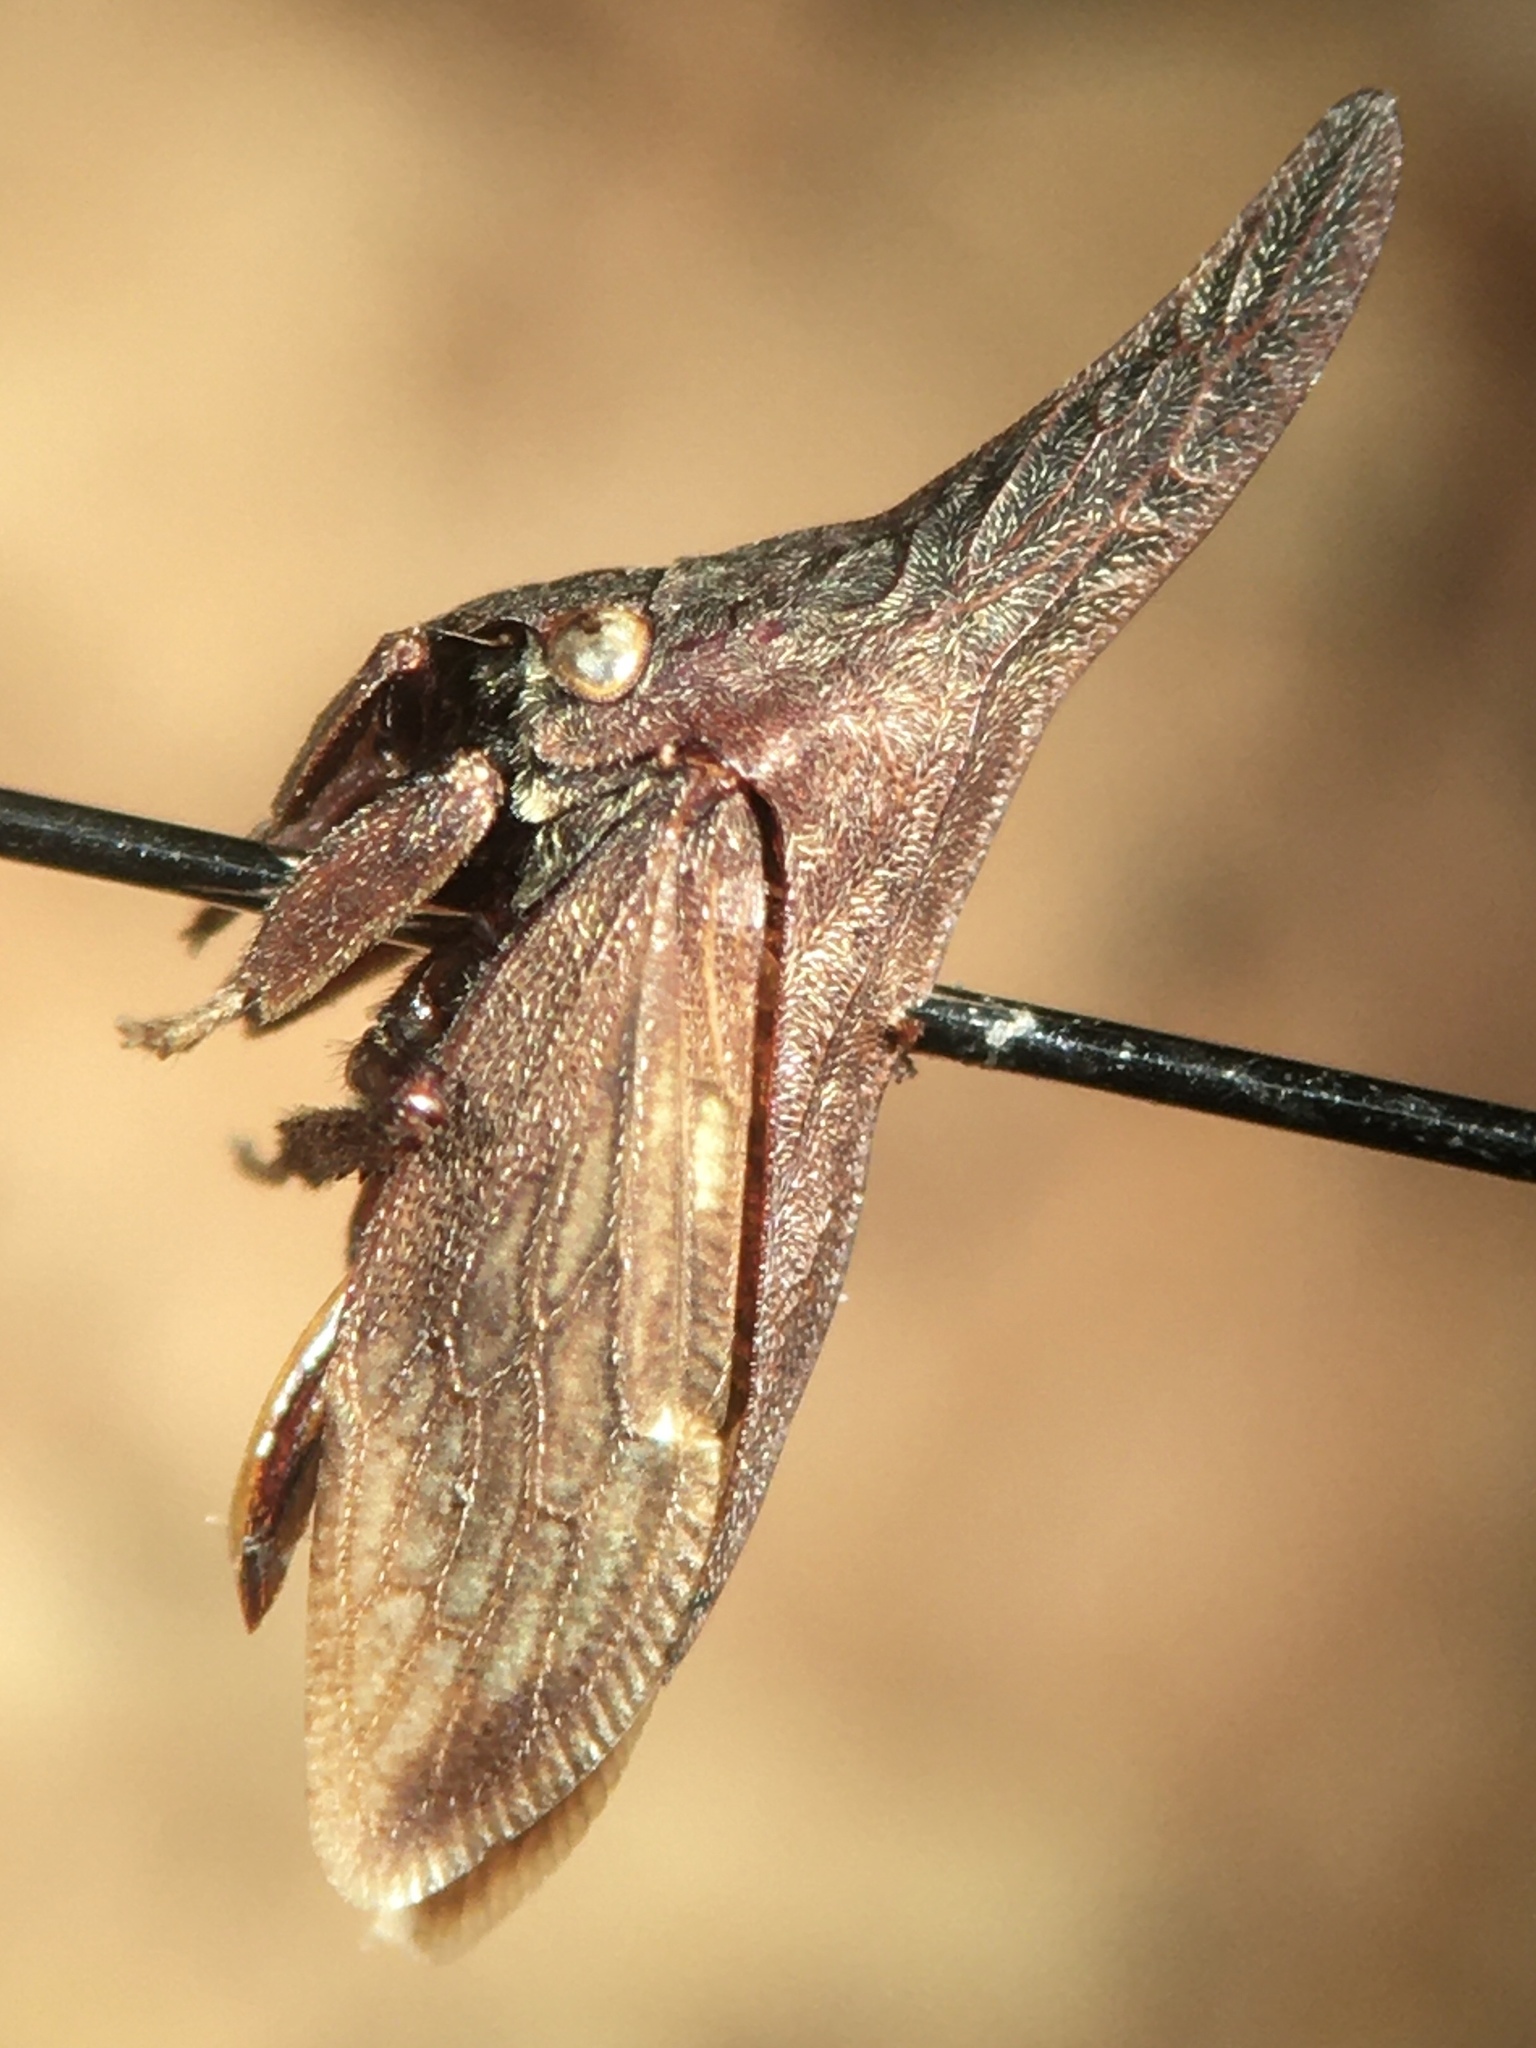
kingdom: Animalia
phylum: Arthropoda
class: Insecta
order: Hemiptera
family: Membracidae
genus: Enchenopa
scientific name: Enchenopa latipes
